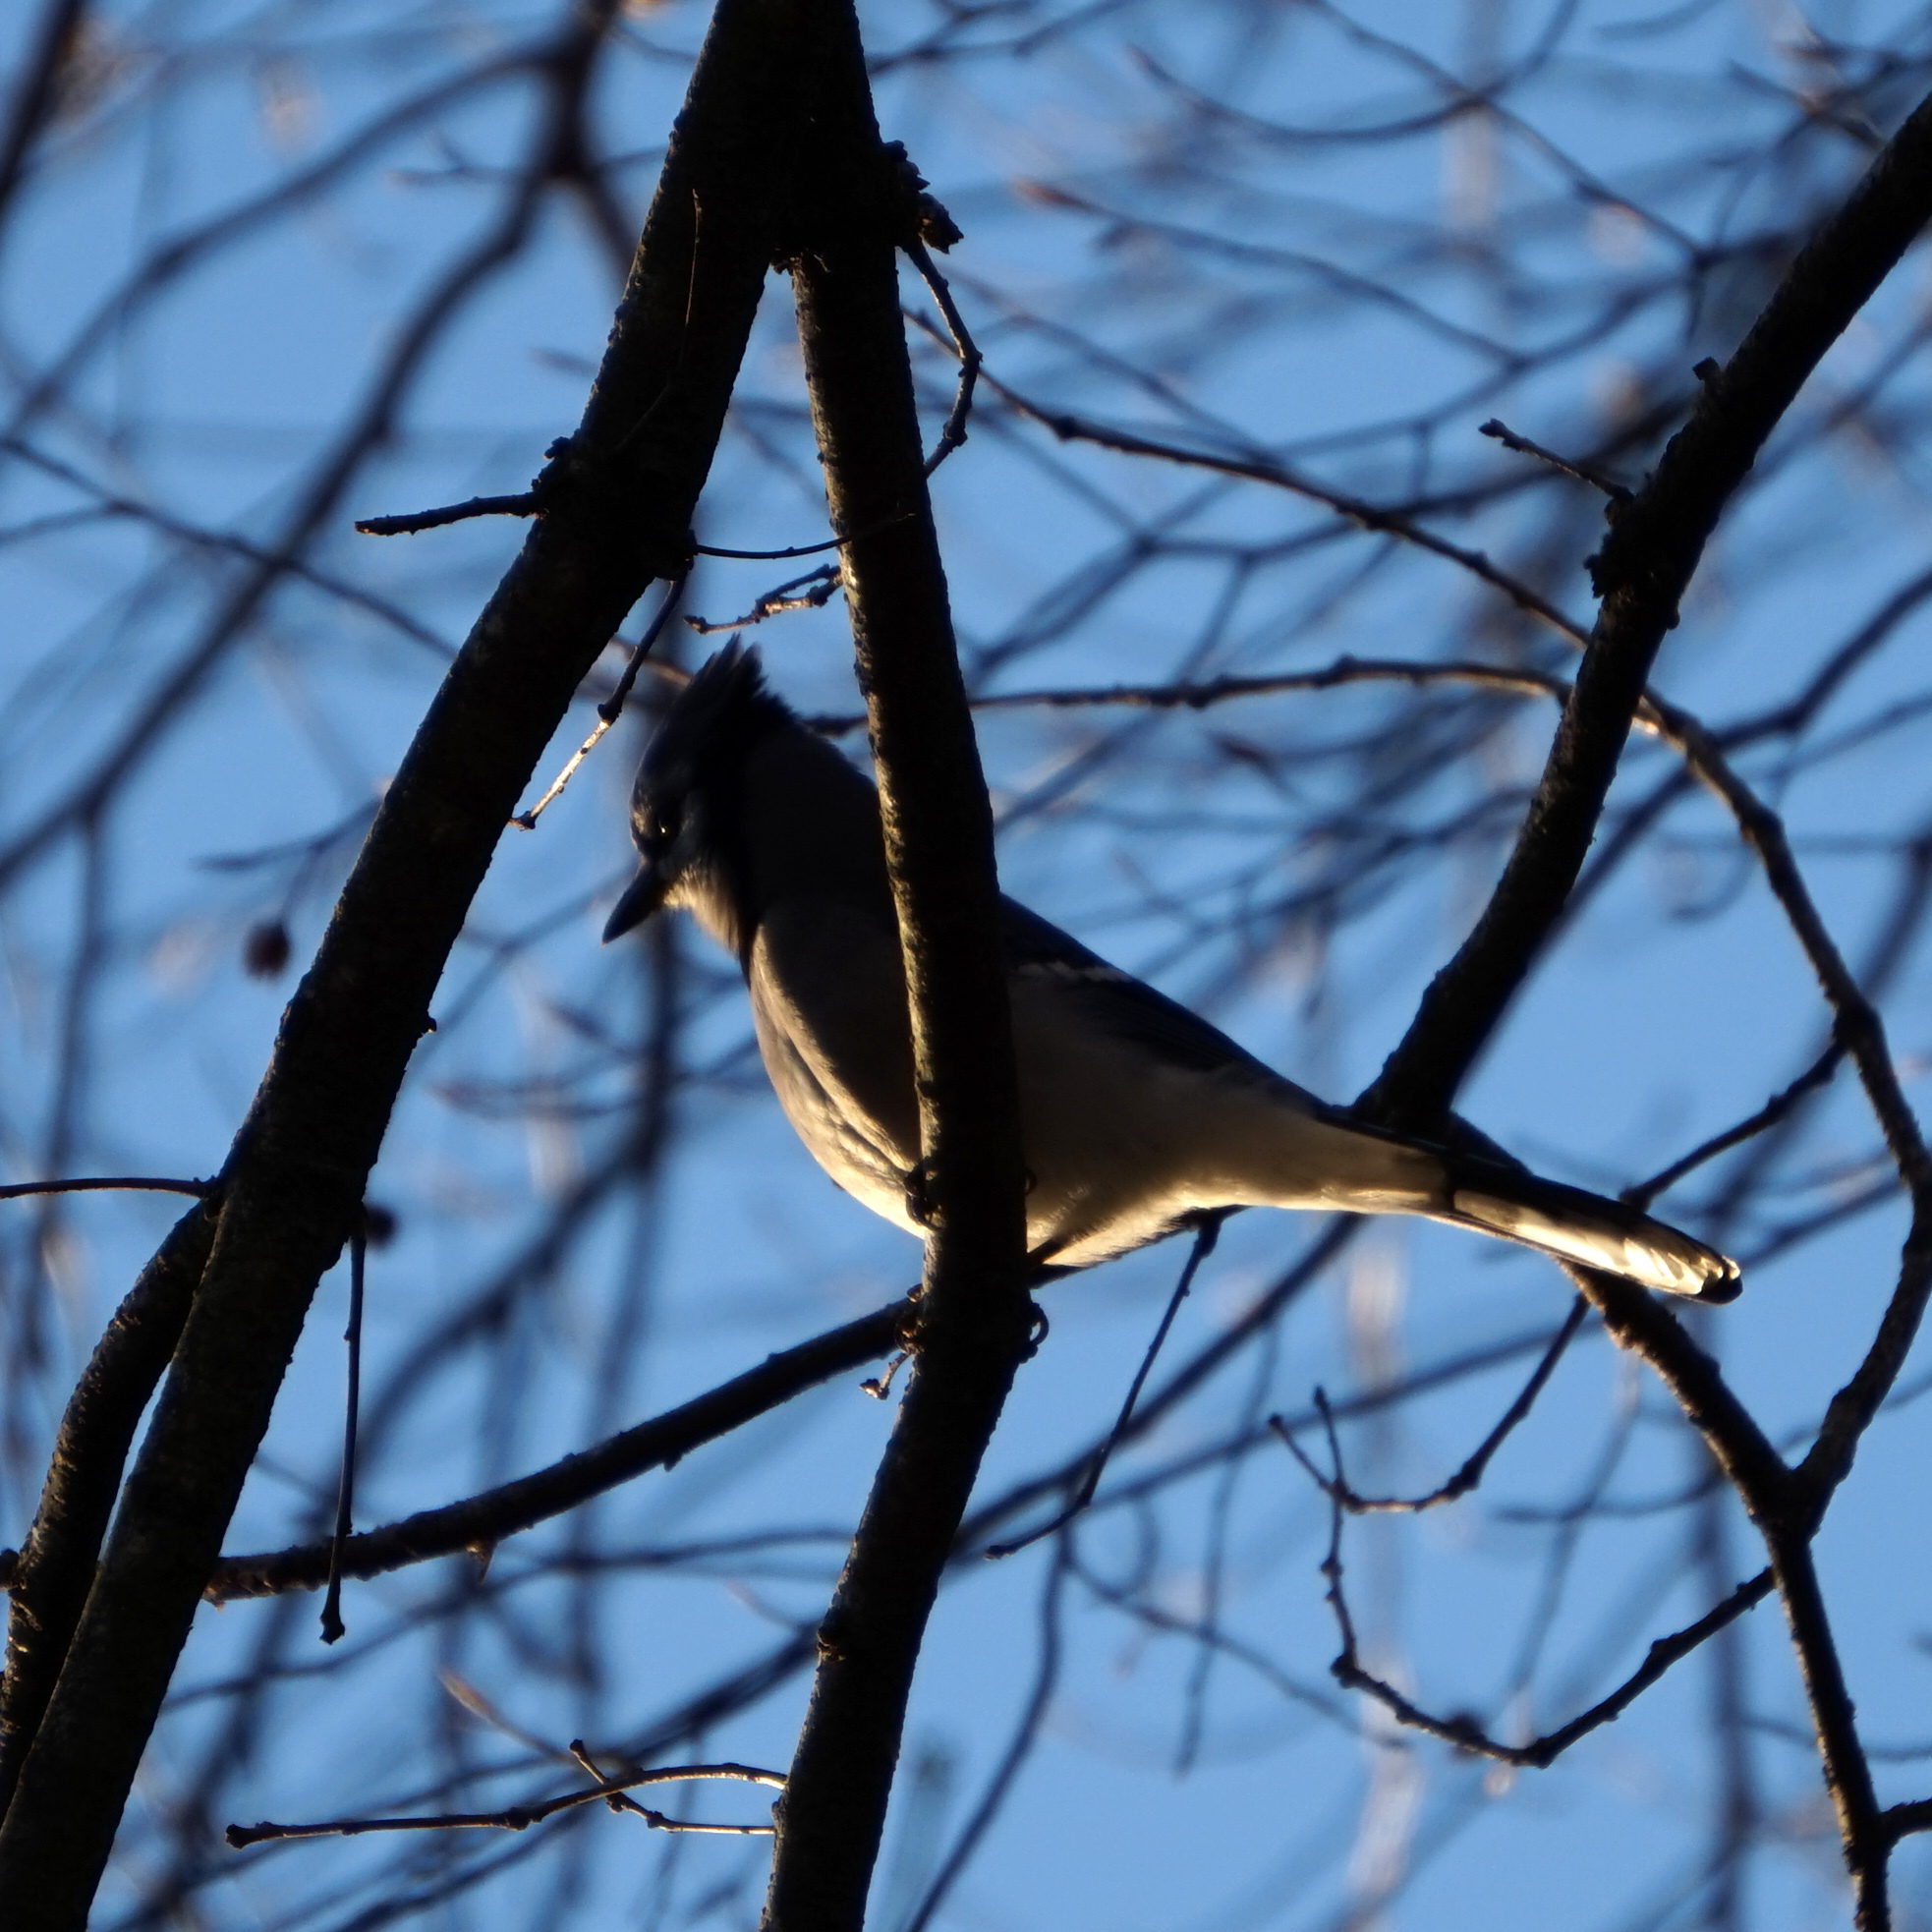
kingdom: Animalia
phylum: Chordata
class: Aves
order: Passeriformes
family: Corvidae
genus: Cyanocitta
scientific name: Cyanocitta cristata
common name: Blue jay
